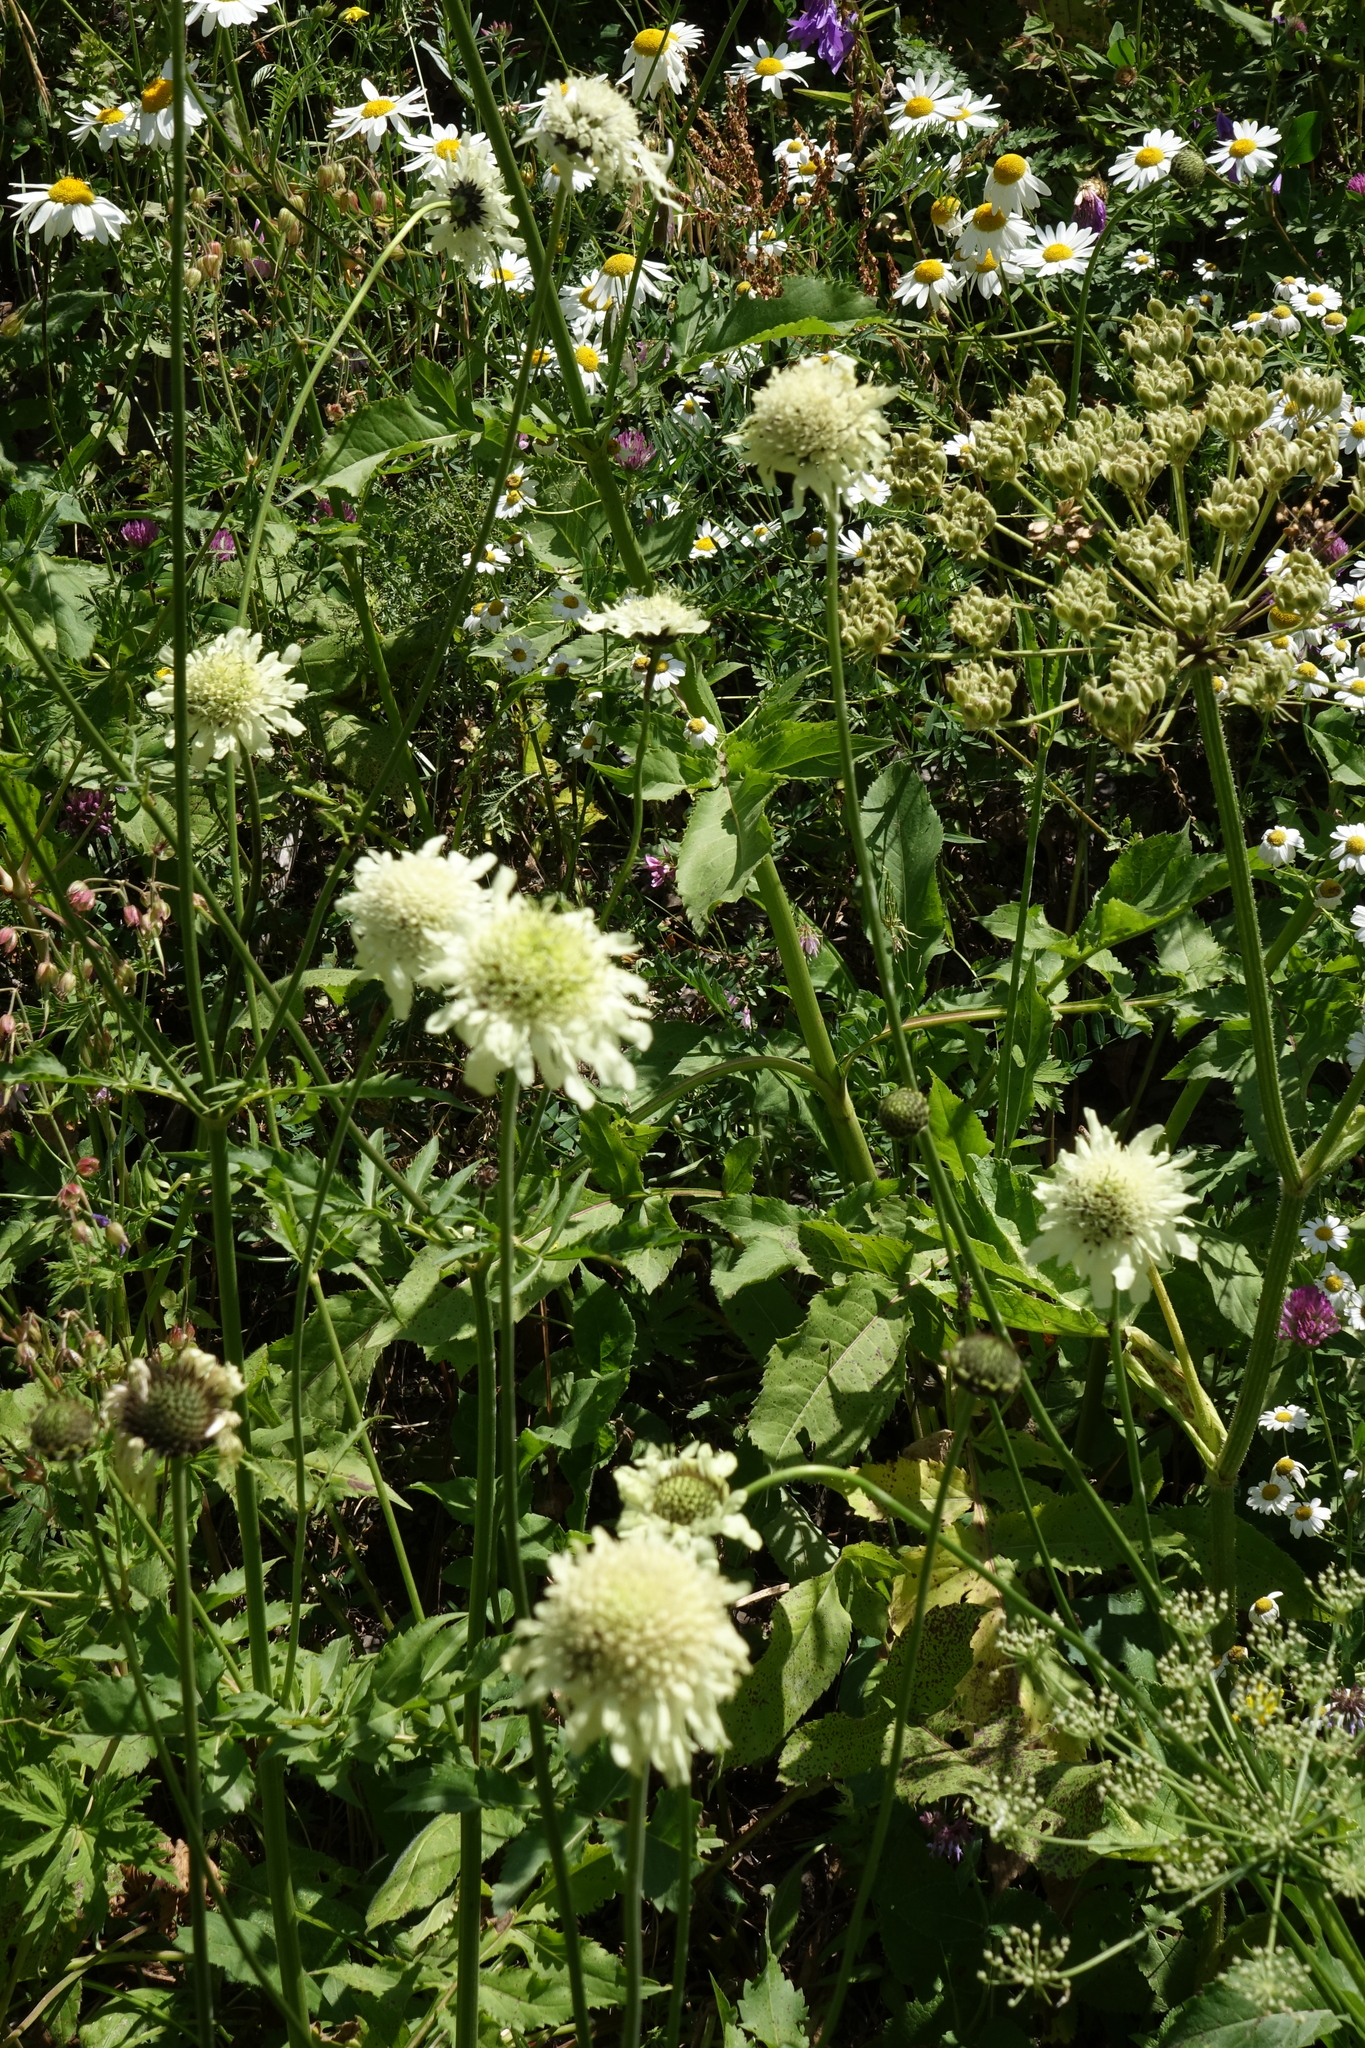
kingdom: Plantae
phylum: Tracheophyta
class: Magnoliopsida
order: Dipsacales
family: Caprifoliaceae
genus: Cephalaria
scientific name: Cephalaria gigantea
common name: Tatarian cephalaria
